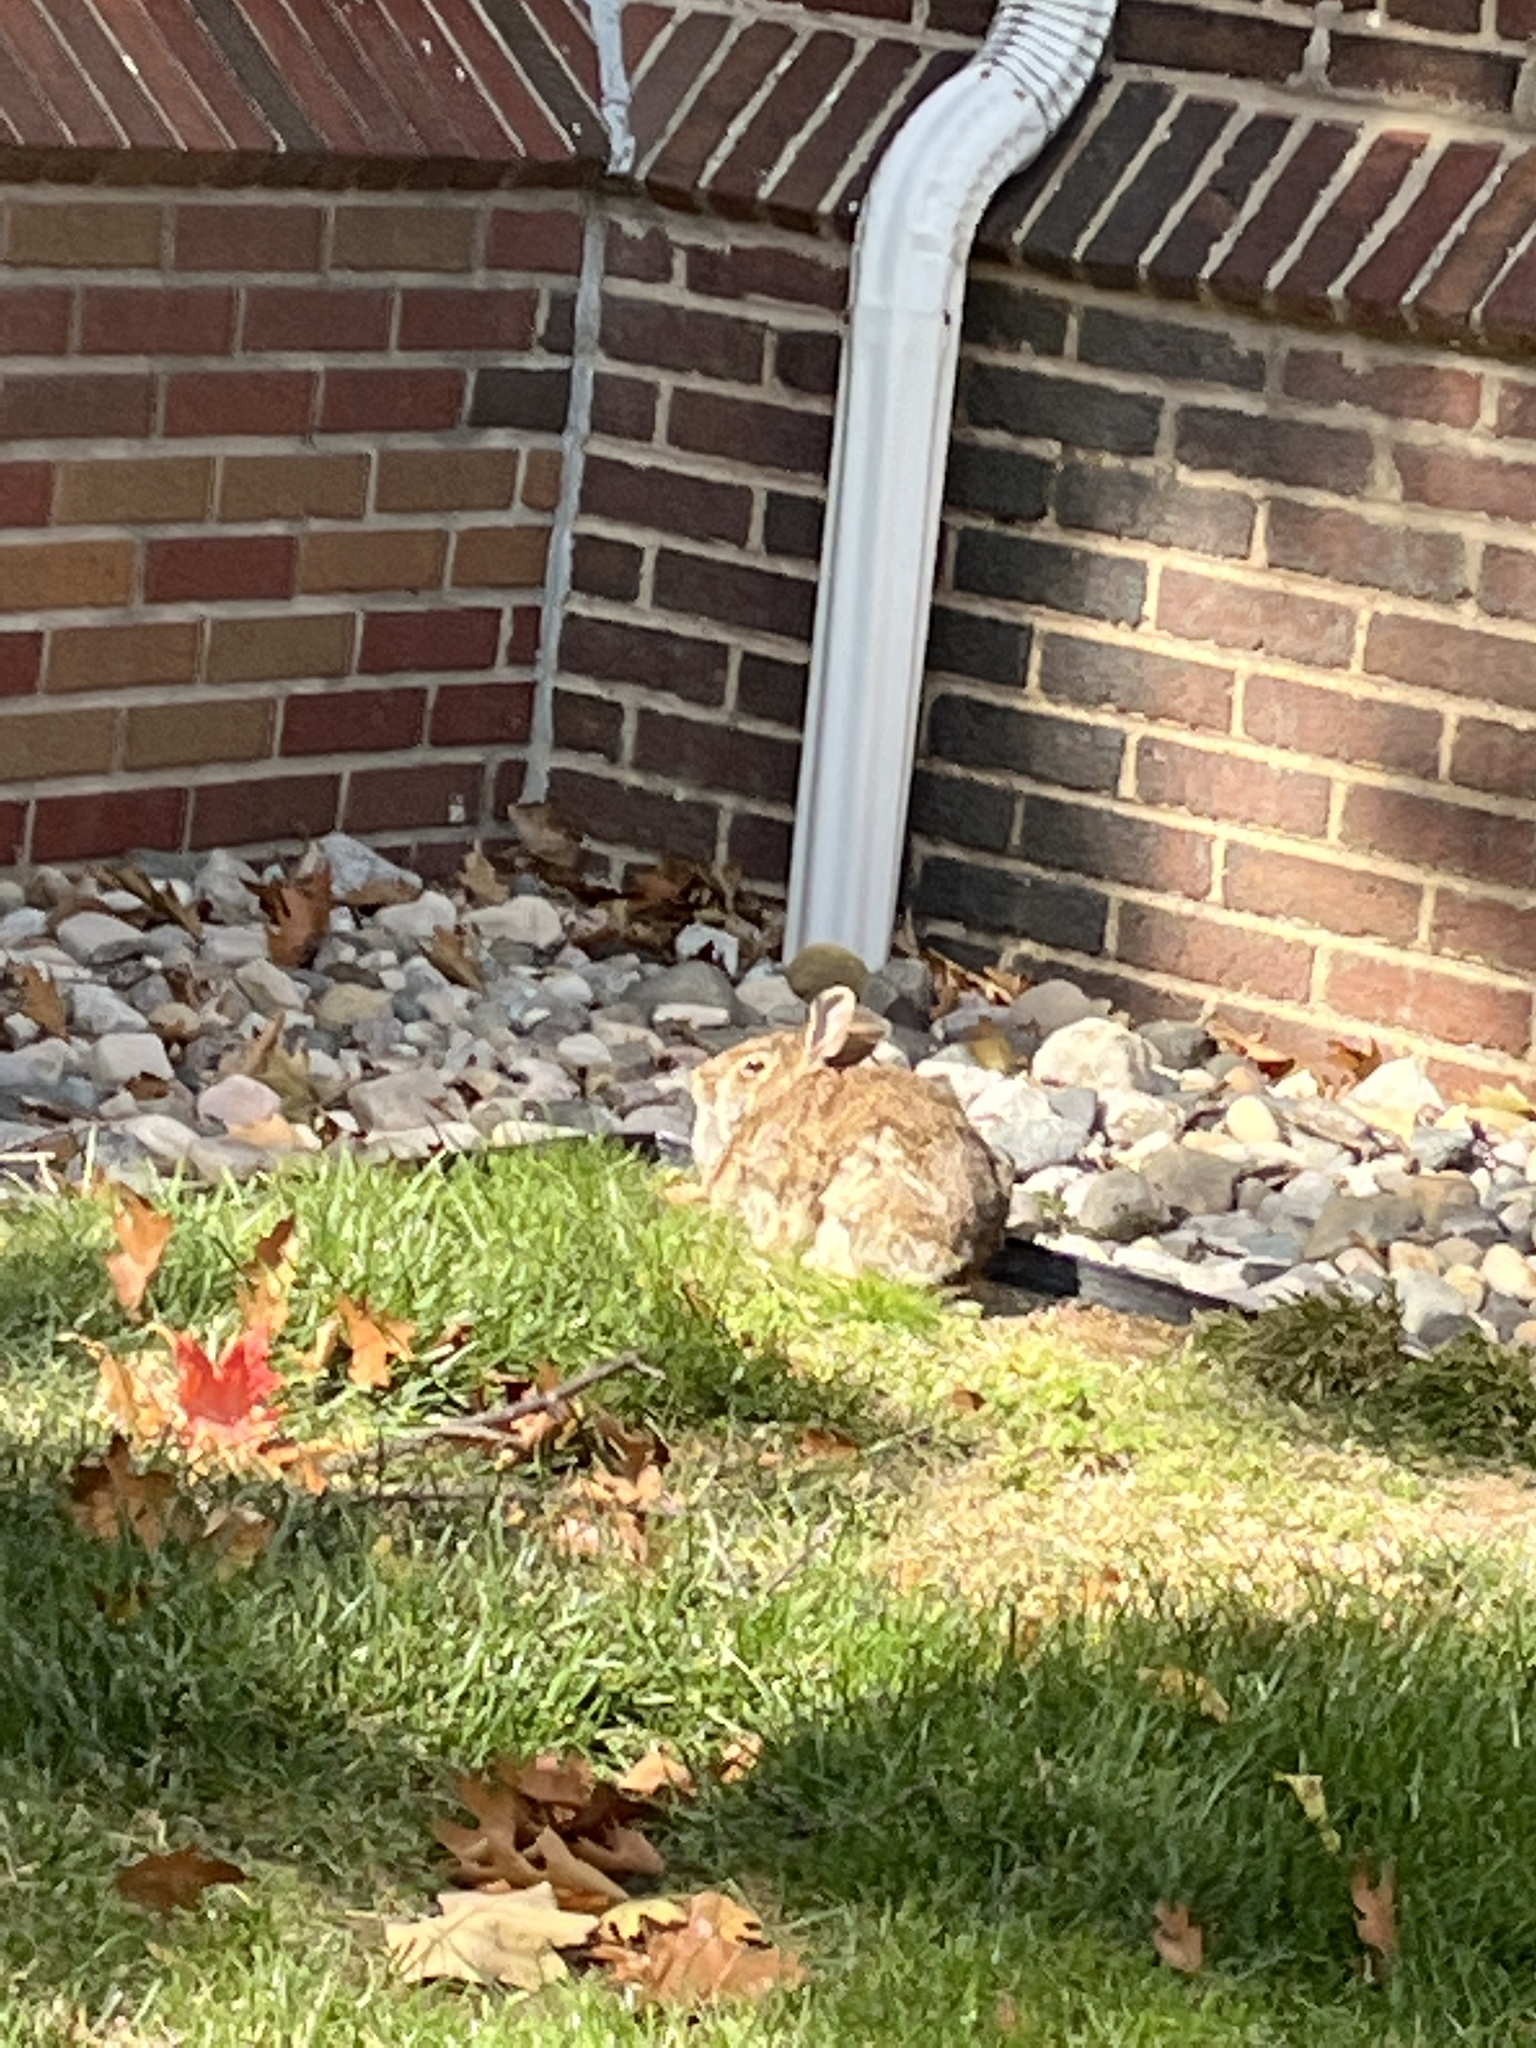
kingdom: Animalia
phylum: Chordata
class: Mammalia
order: Lagomorpha
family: Leporidae
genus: Sylvilagus
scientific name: Sylvilagus floridanus
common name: Eastern cottontail
